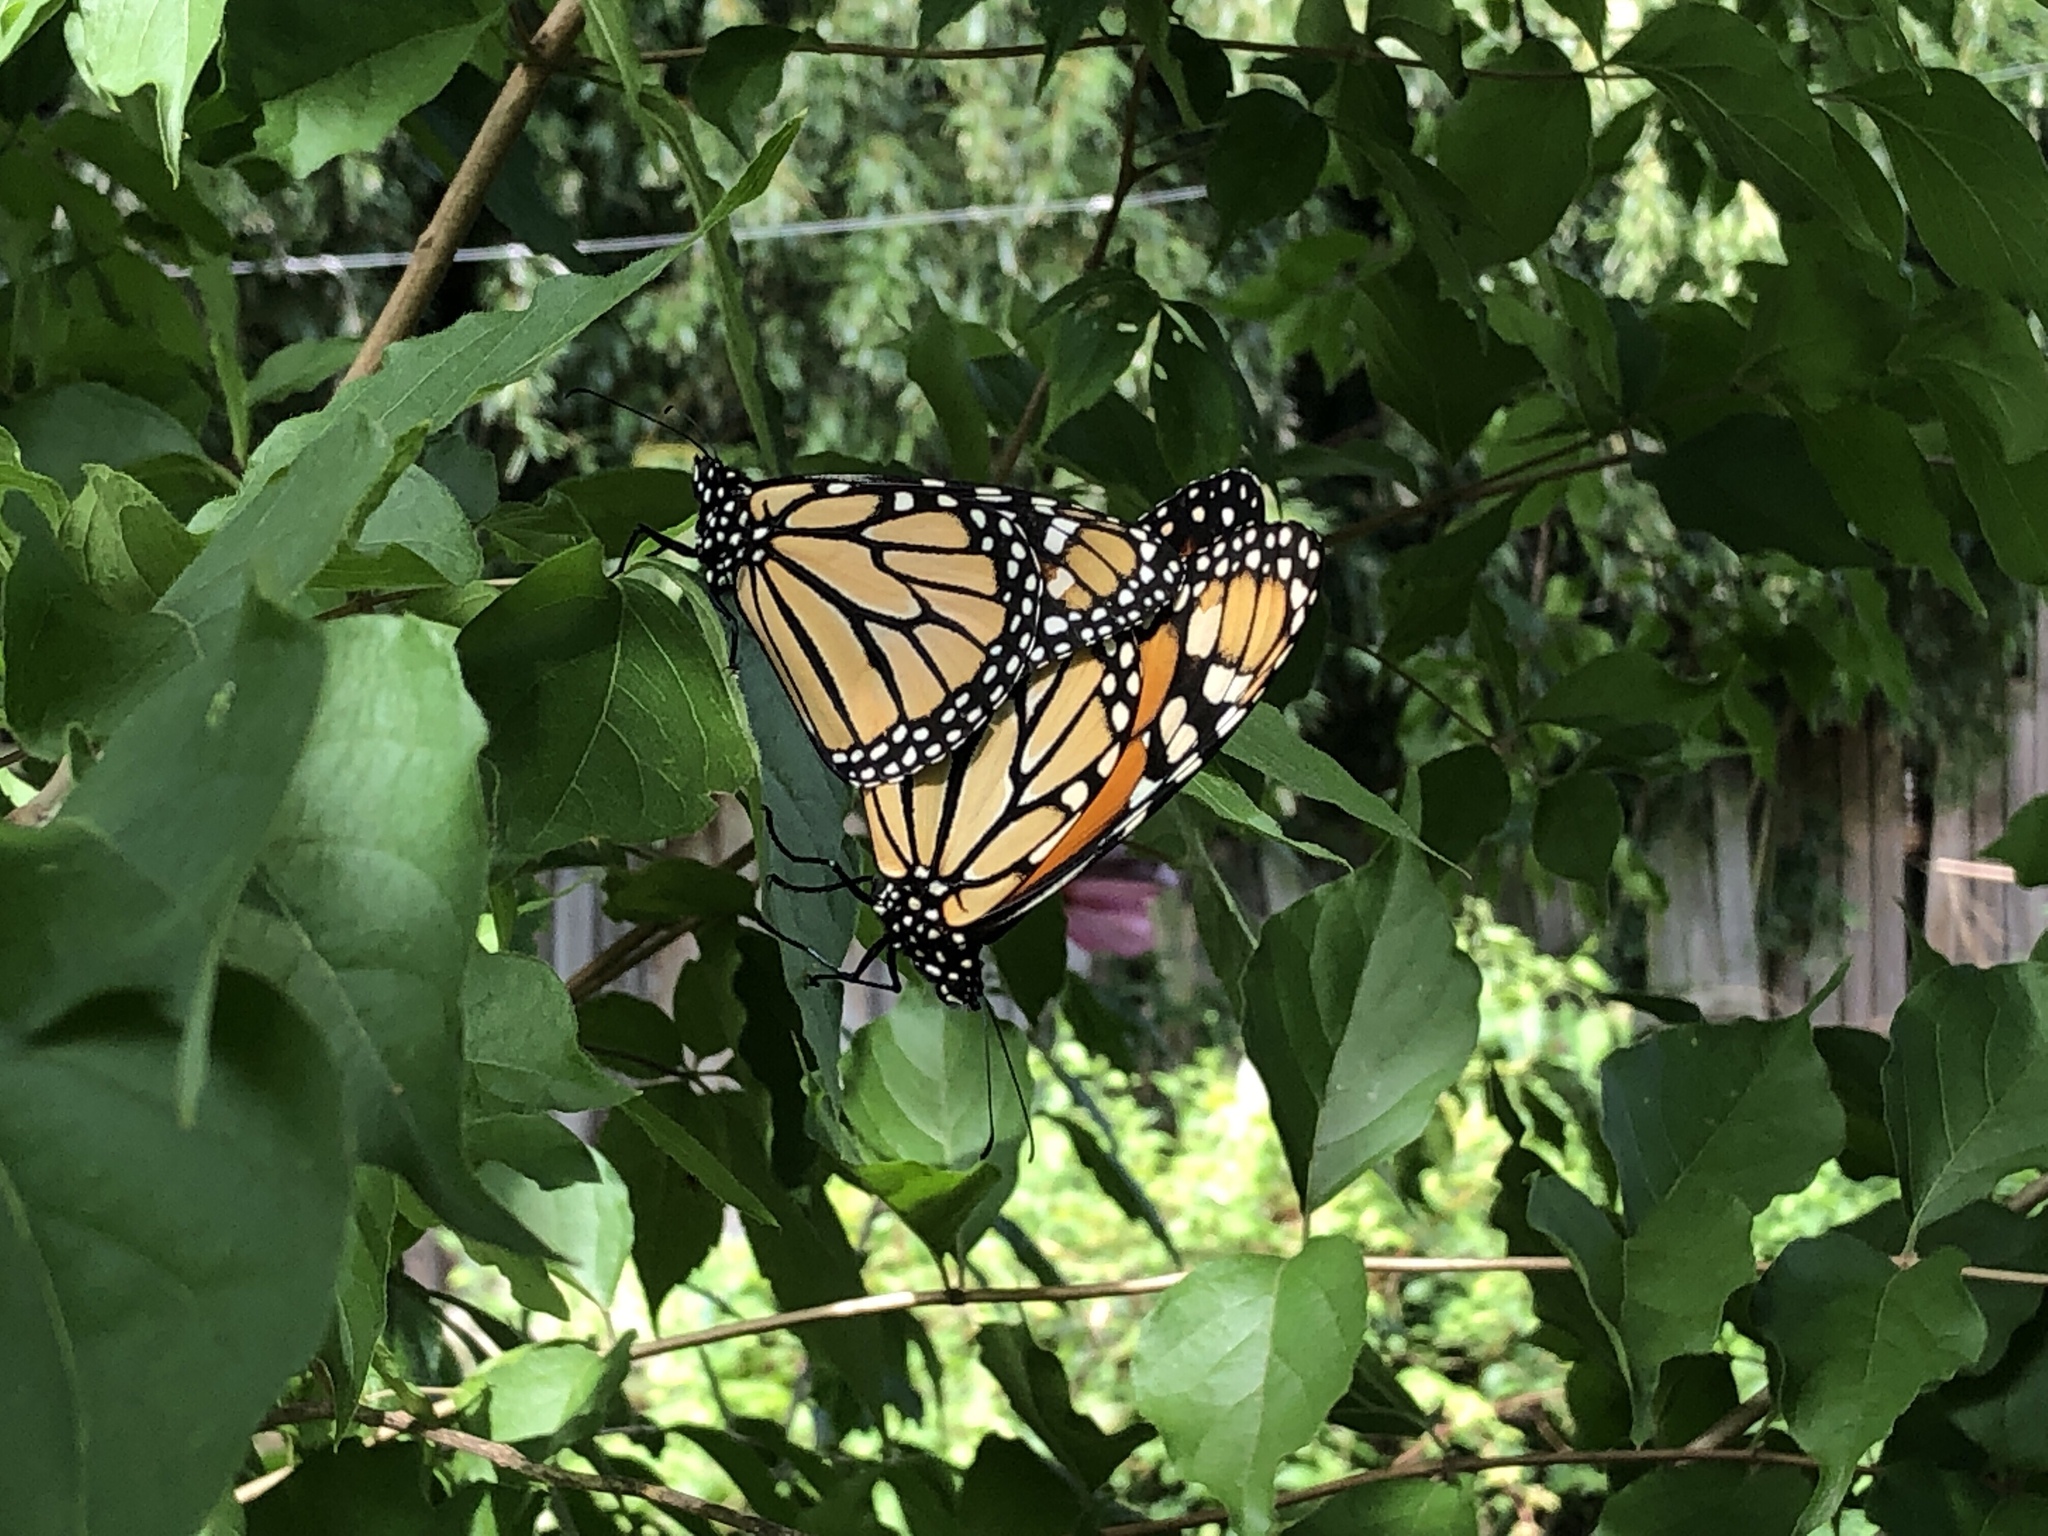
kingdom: Animalia
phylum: Arthropoda
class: Insecta
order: Lepidoptera
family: Nymphalidae
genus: Danaus
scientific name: Danaus plexippus
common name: Monarch
